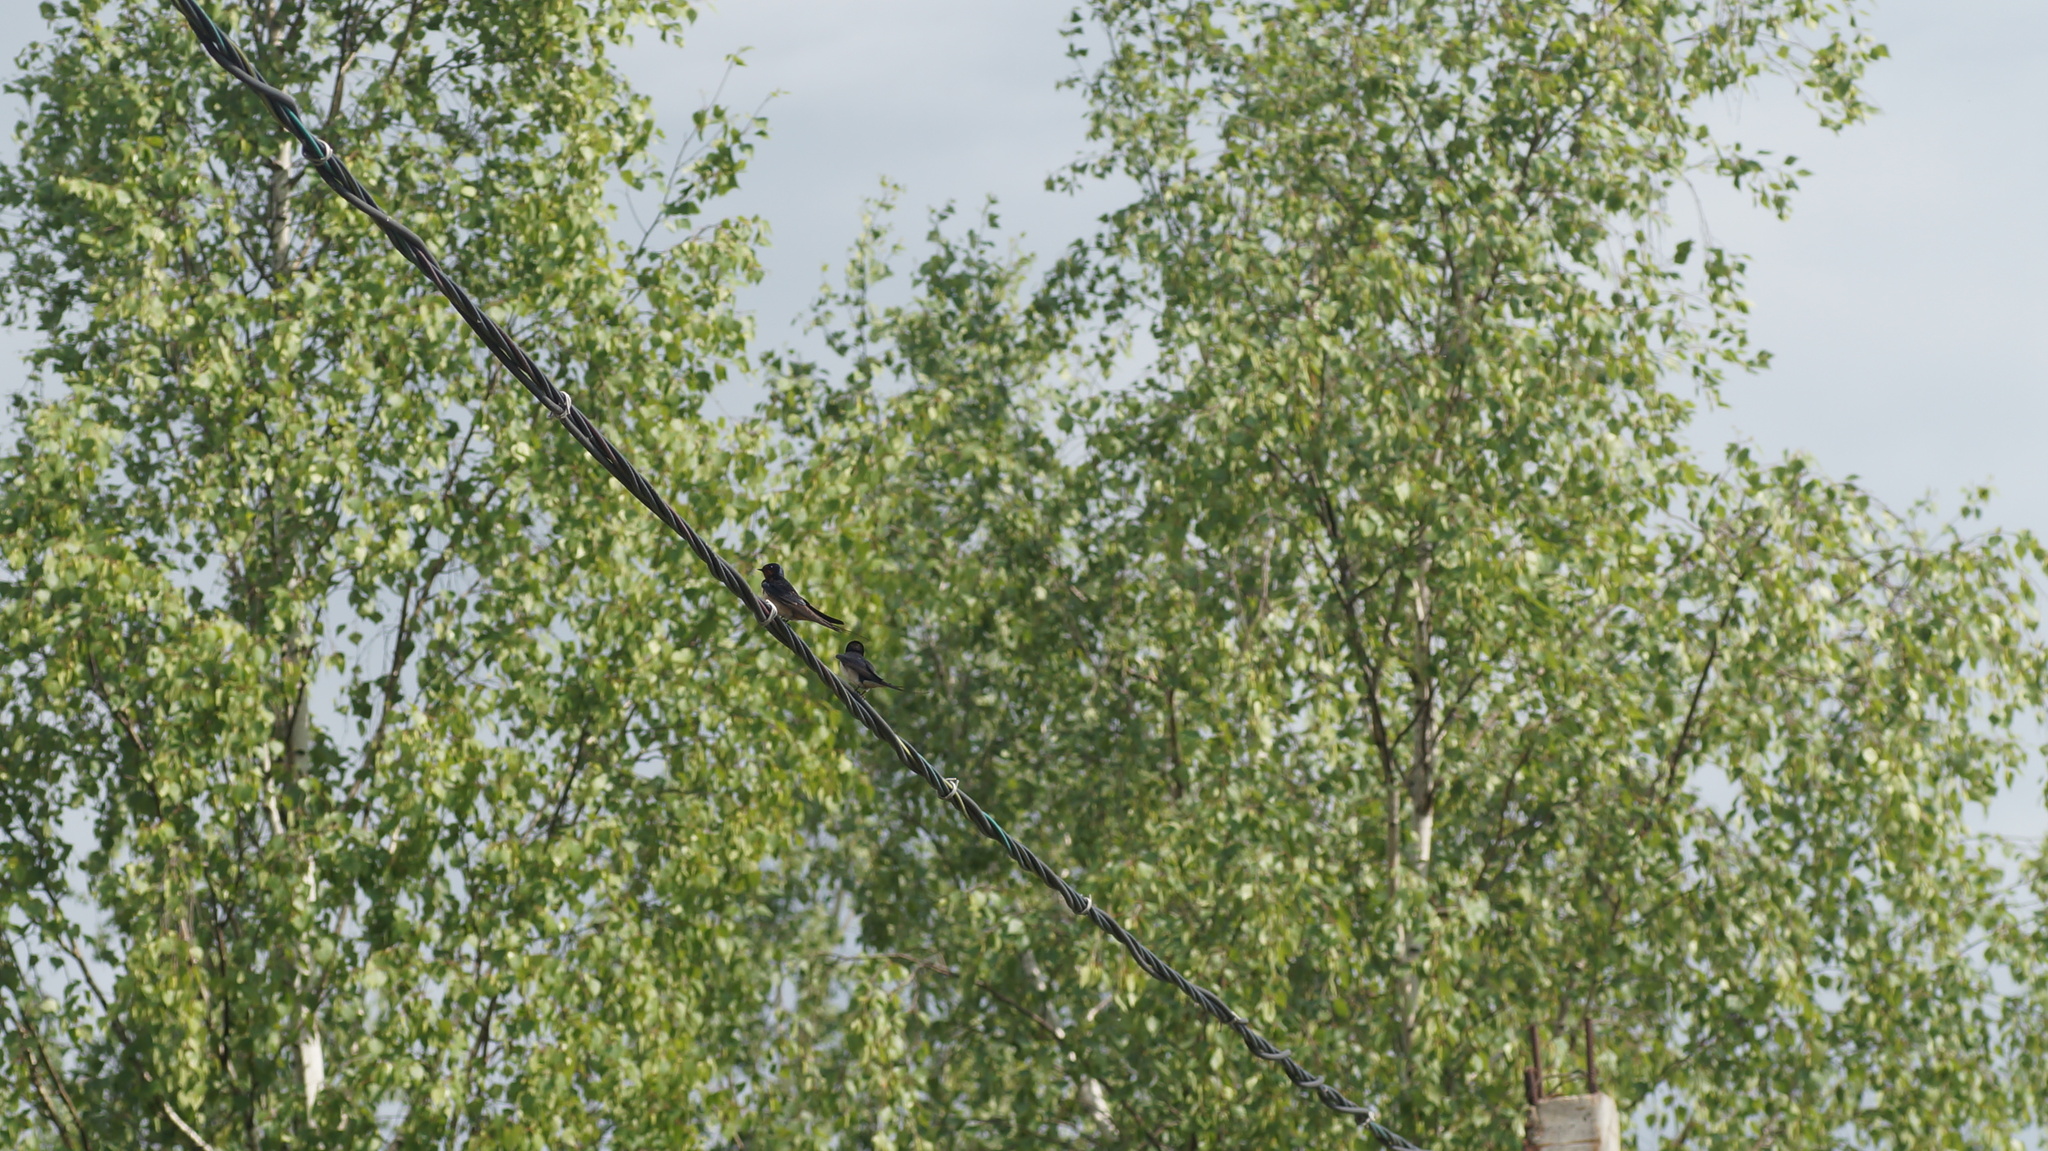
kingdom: Animalia
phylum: Chordata
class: Aves
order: Passeriformes
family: Hirundinidae
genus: Hirundo
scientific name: Hirundo rustica
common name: Barn swallow
